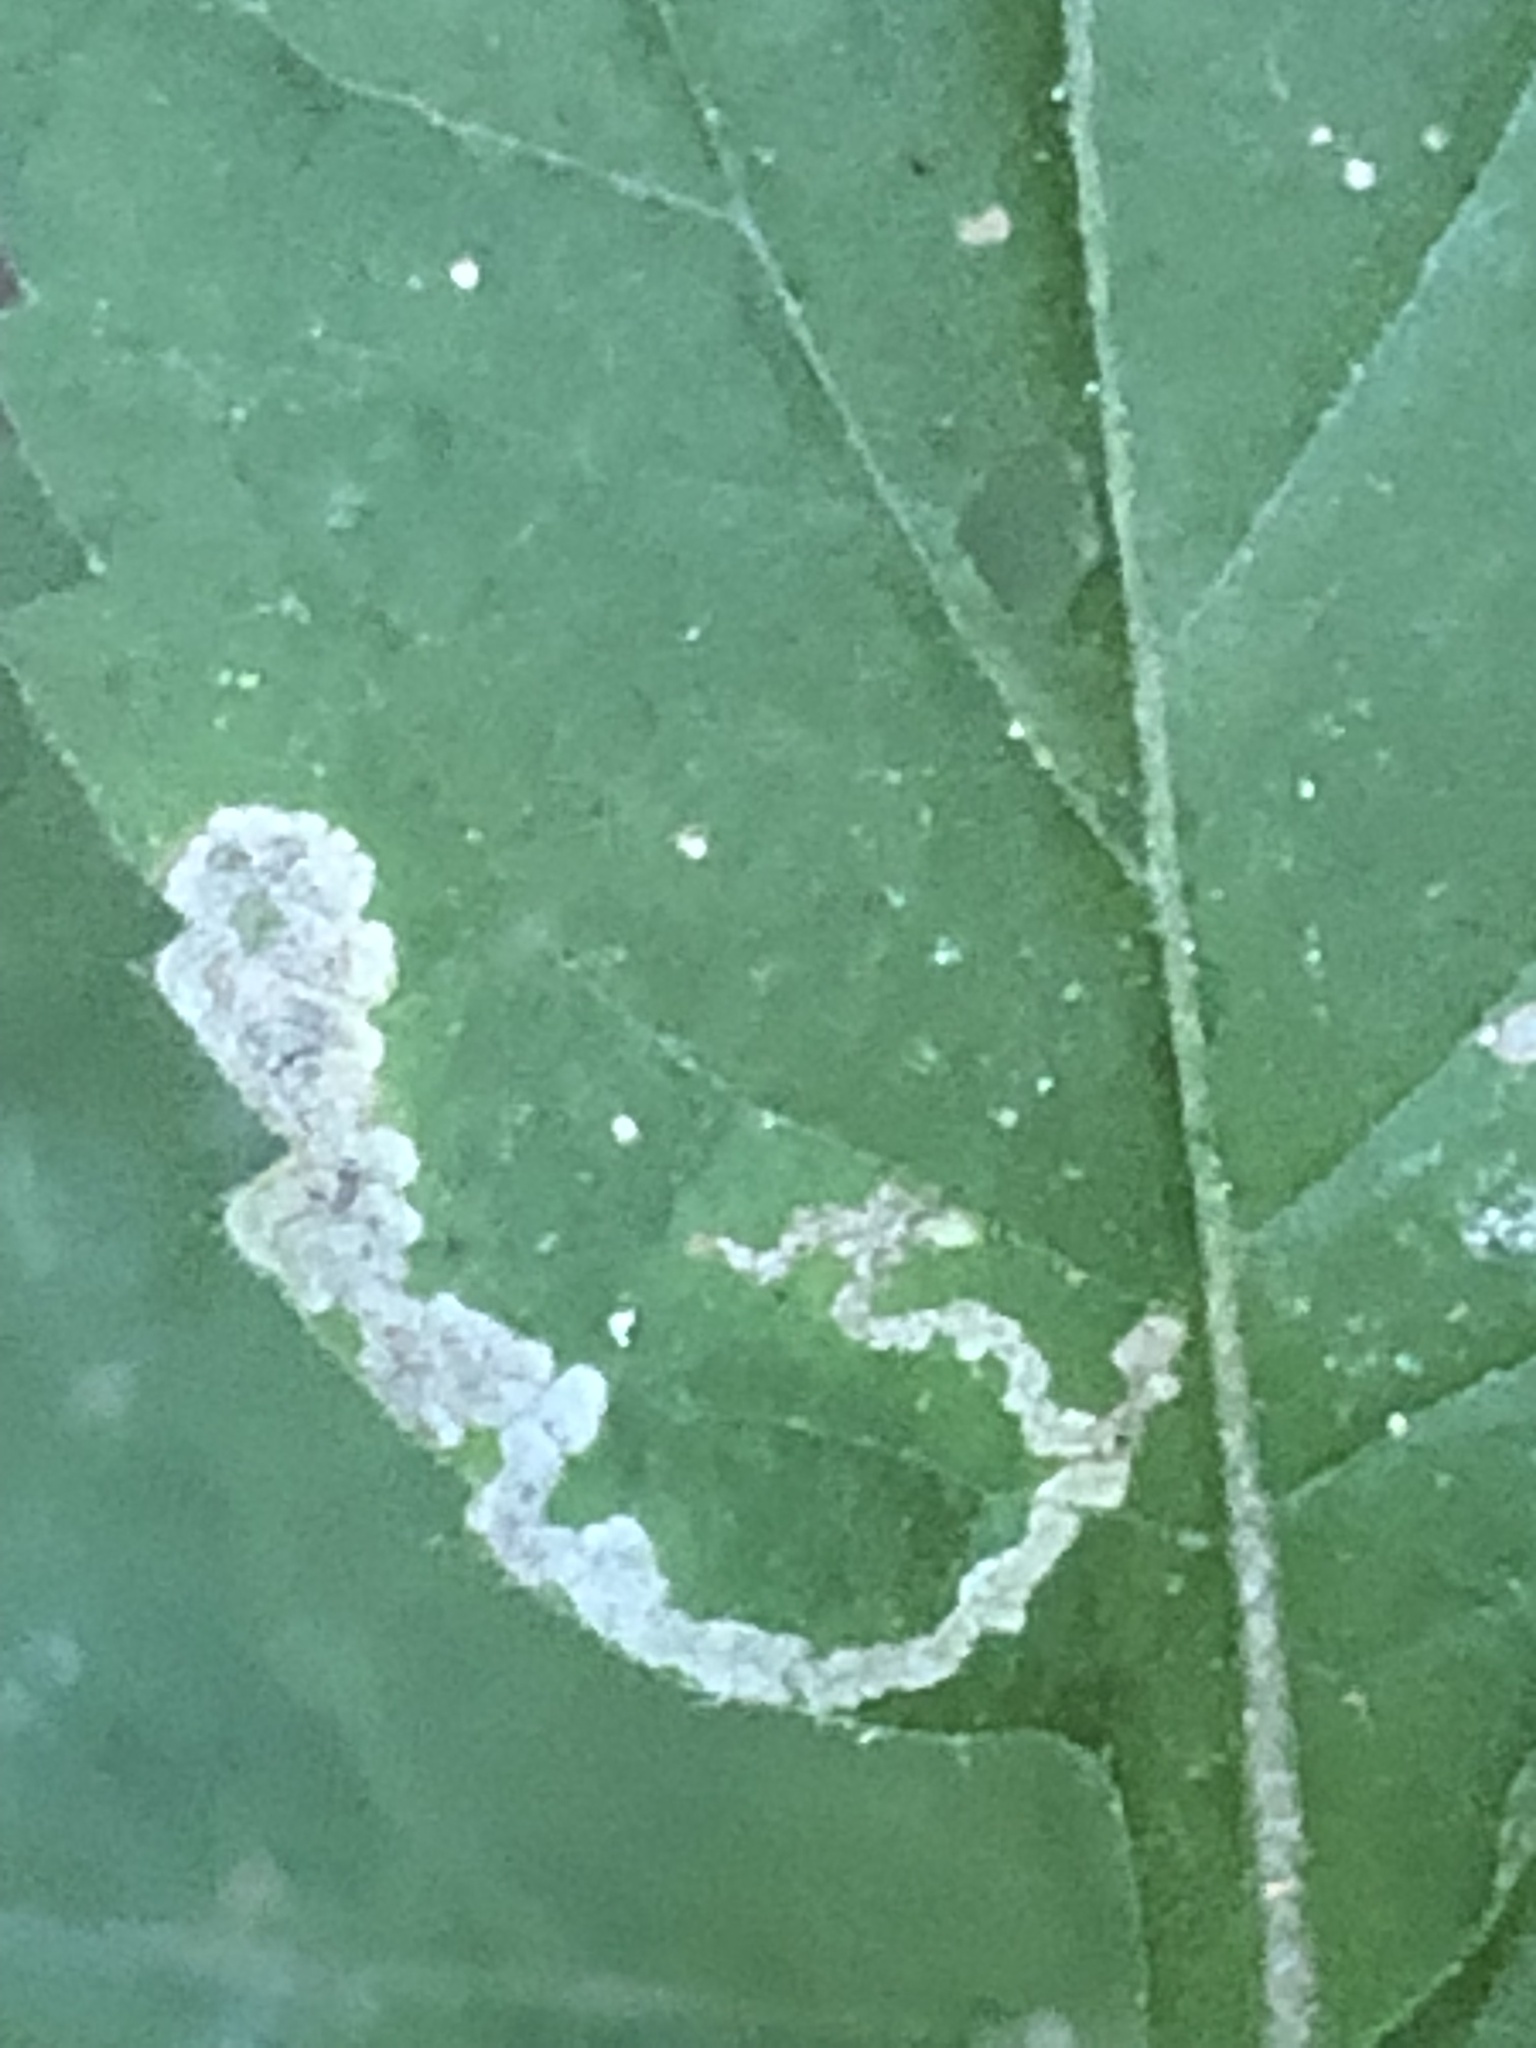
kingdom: Animalia
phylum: Arthropoda
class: Insecta
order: Diptera
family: Agromyzidae
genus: Liriomyza
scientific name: Liriomyza limopsis
